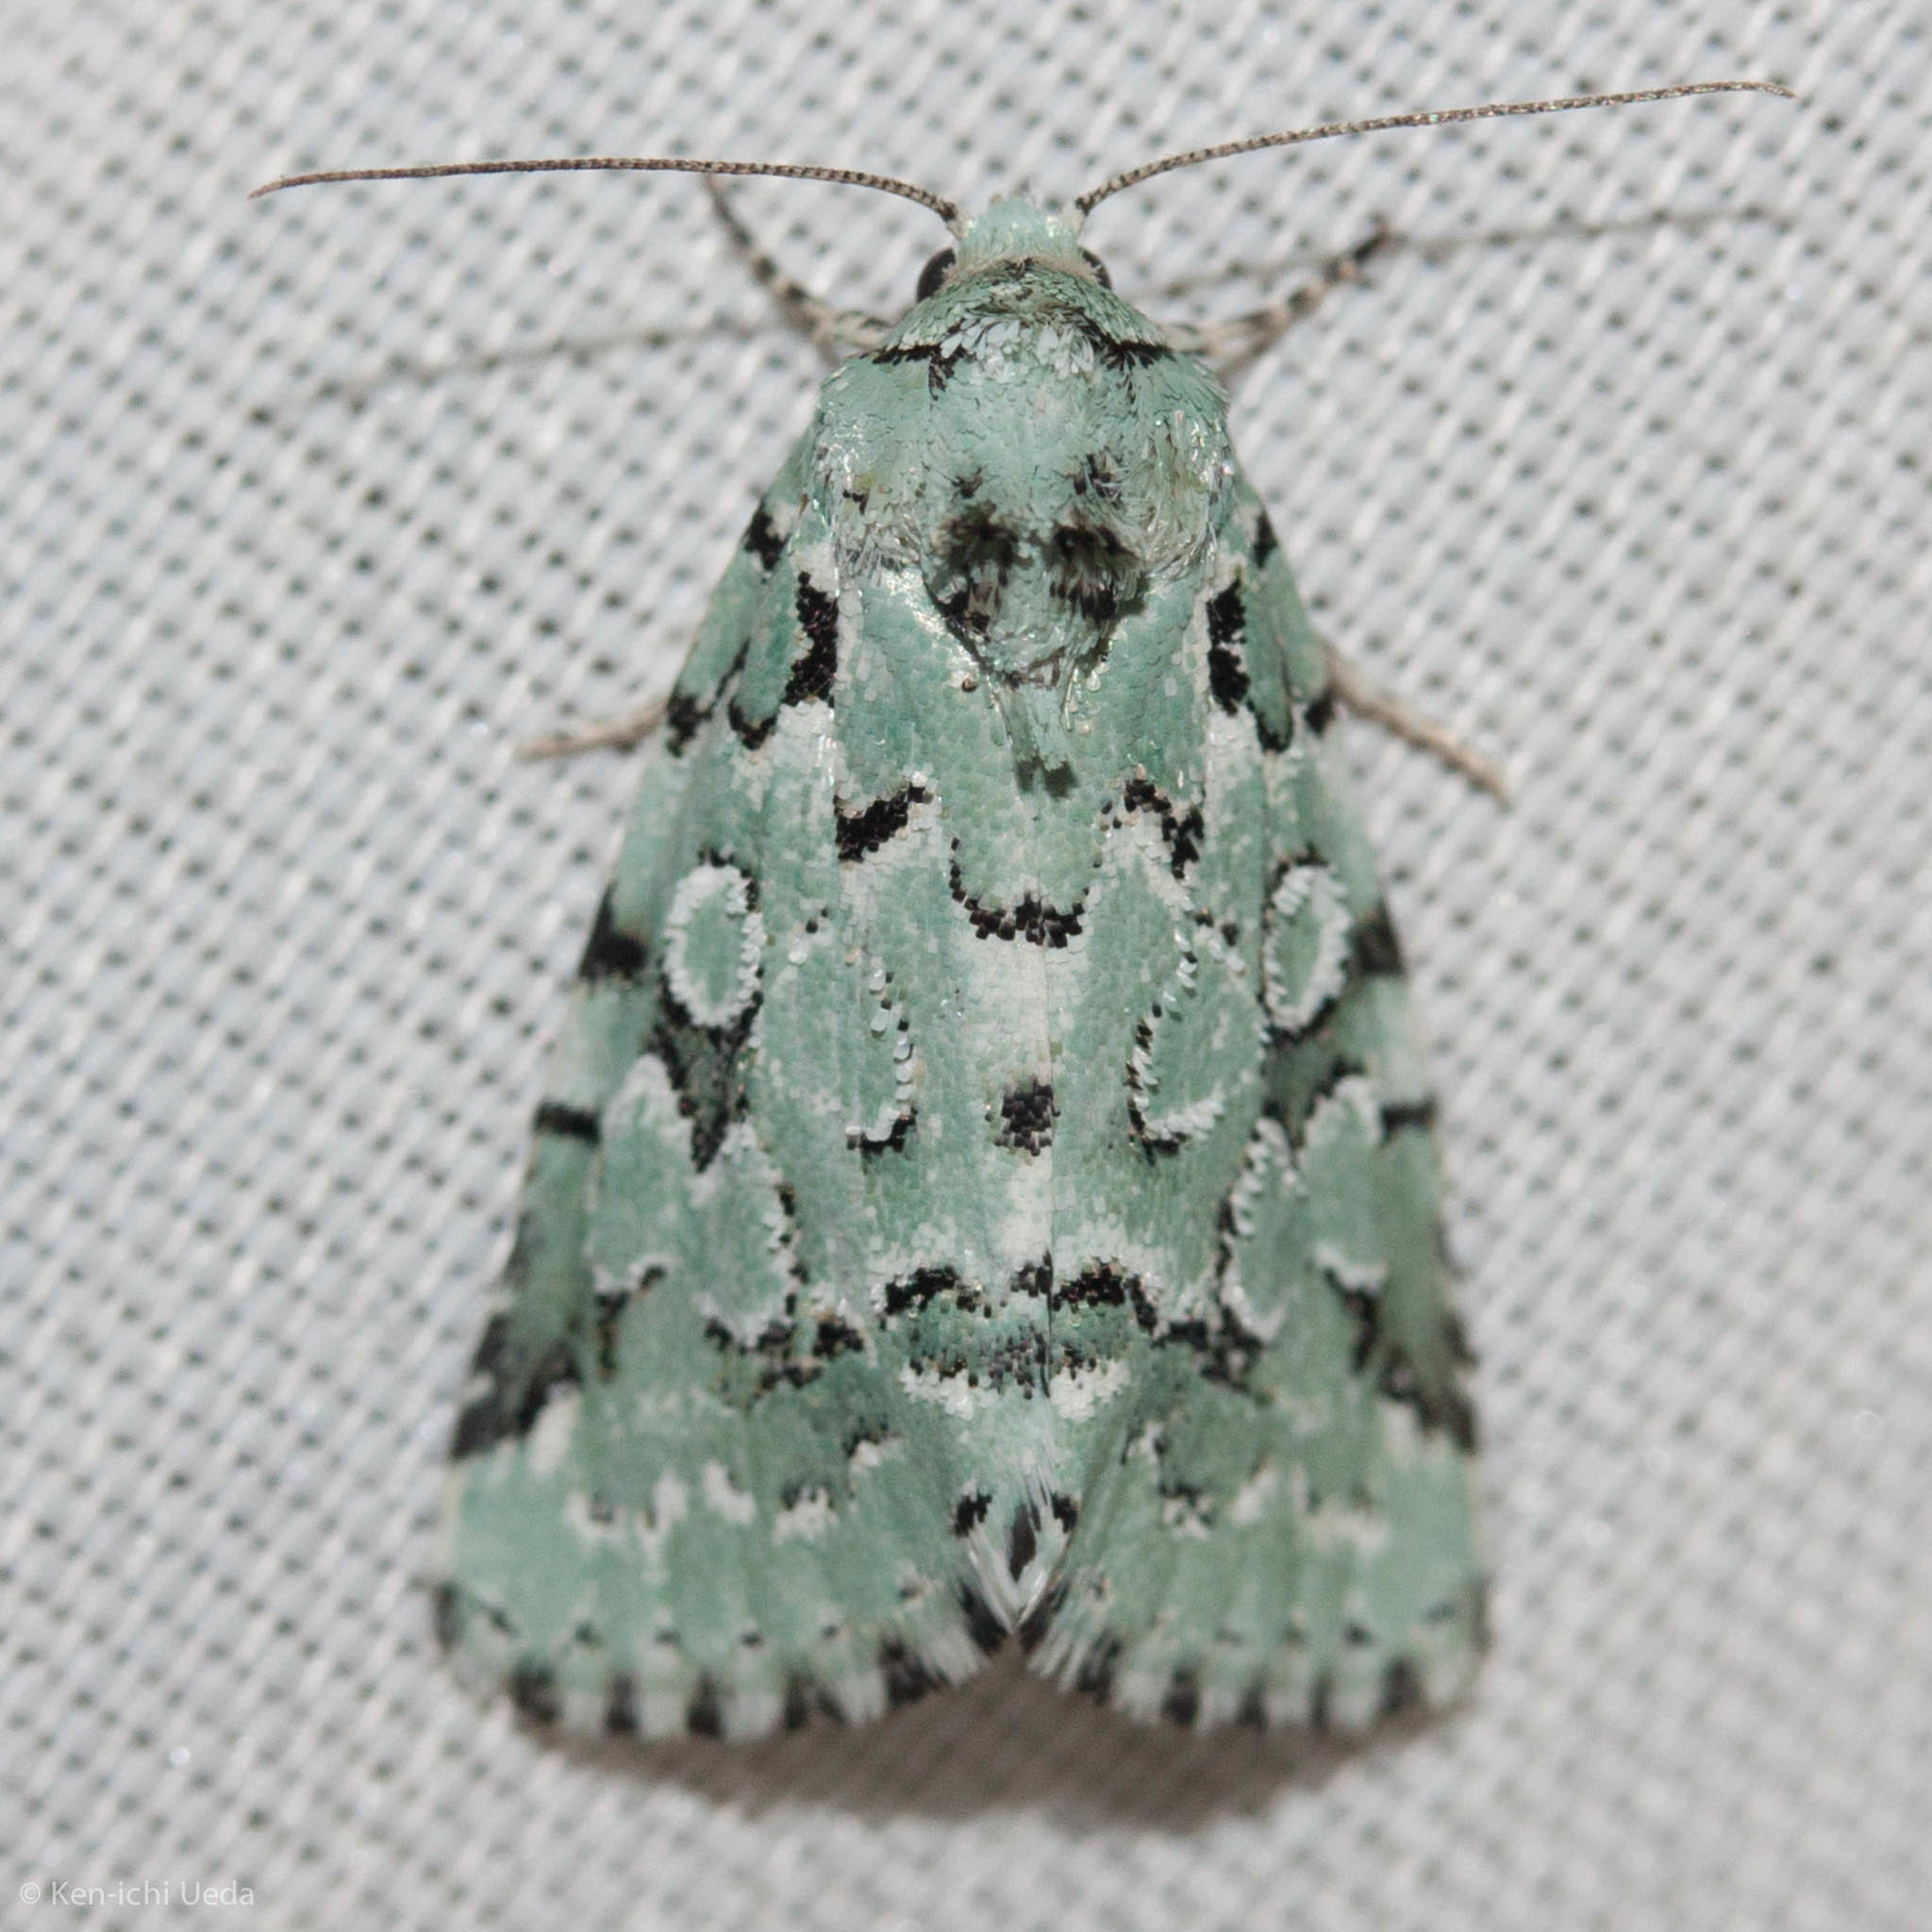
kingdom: Animalia
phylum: Arthropoda
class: Insecta
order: Lepidoptera
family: Noctuidae
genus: Bryolymnia
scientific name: Bryolymnia viridata
